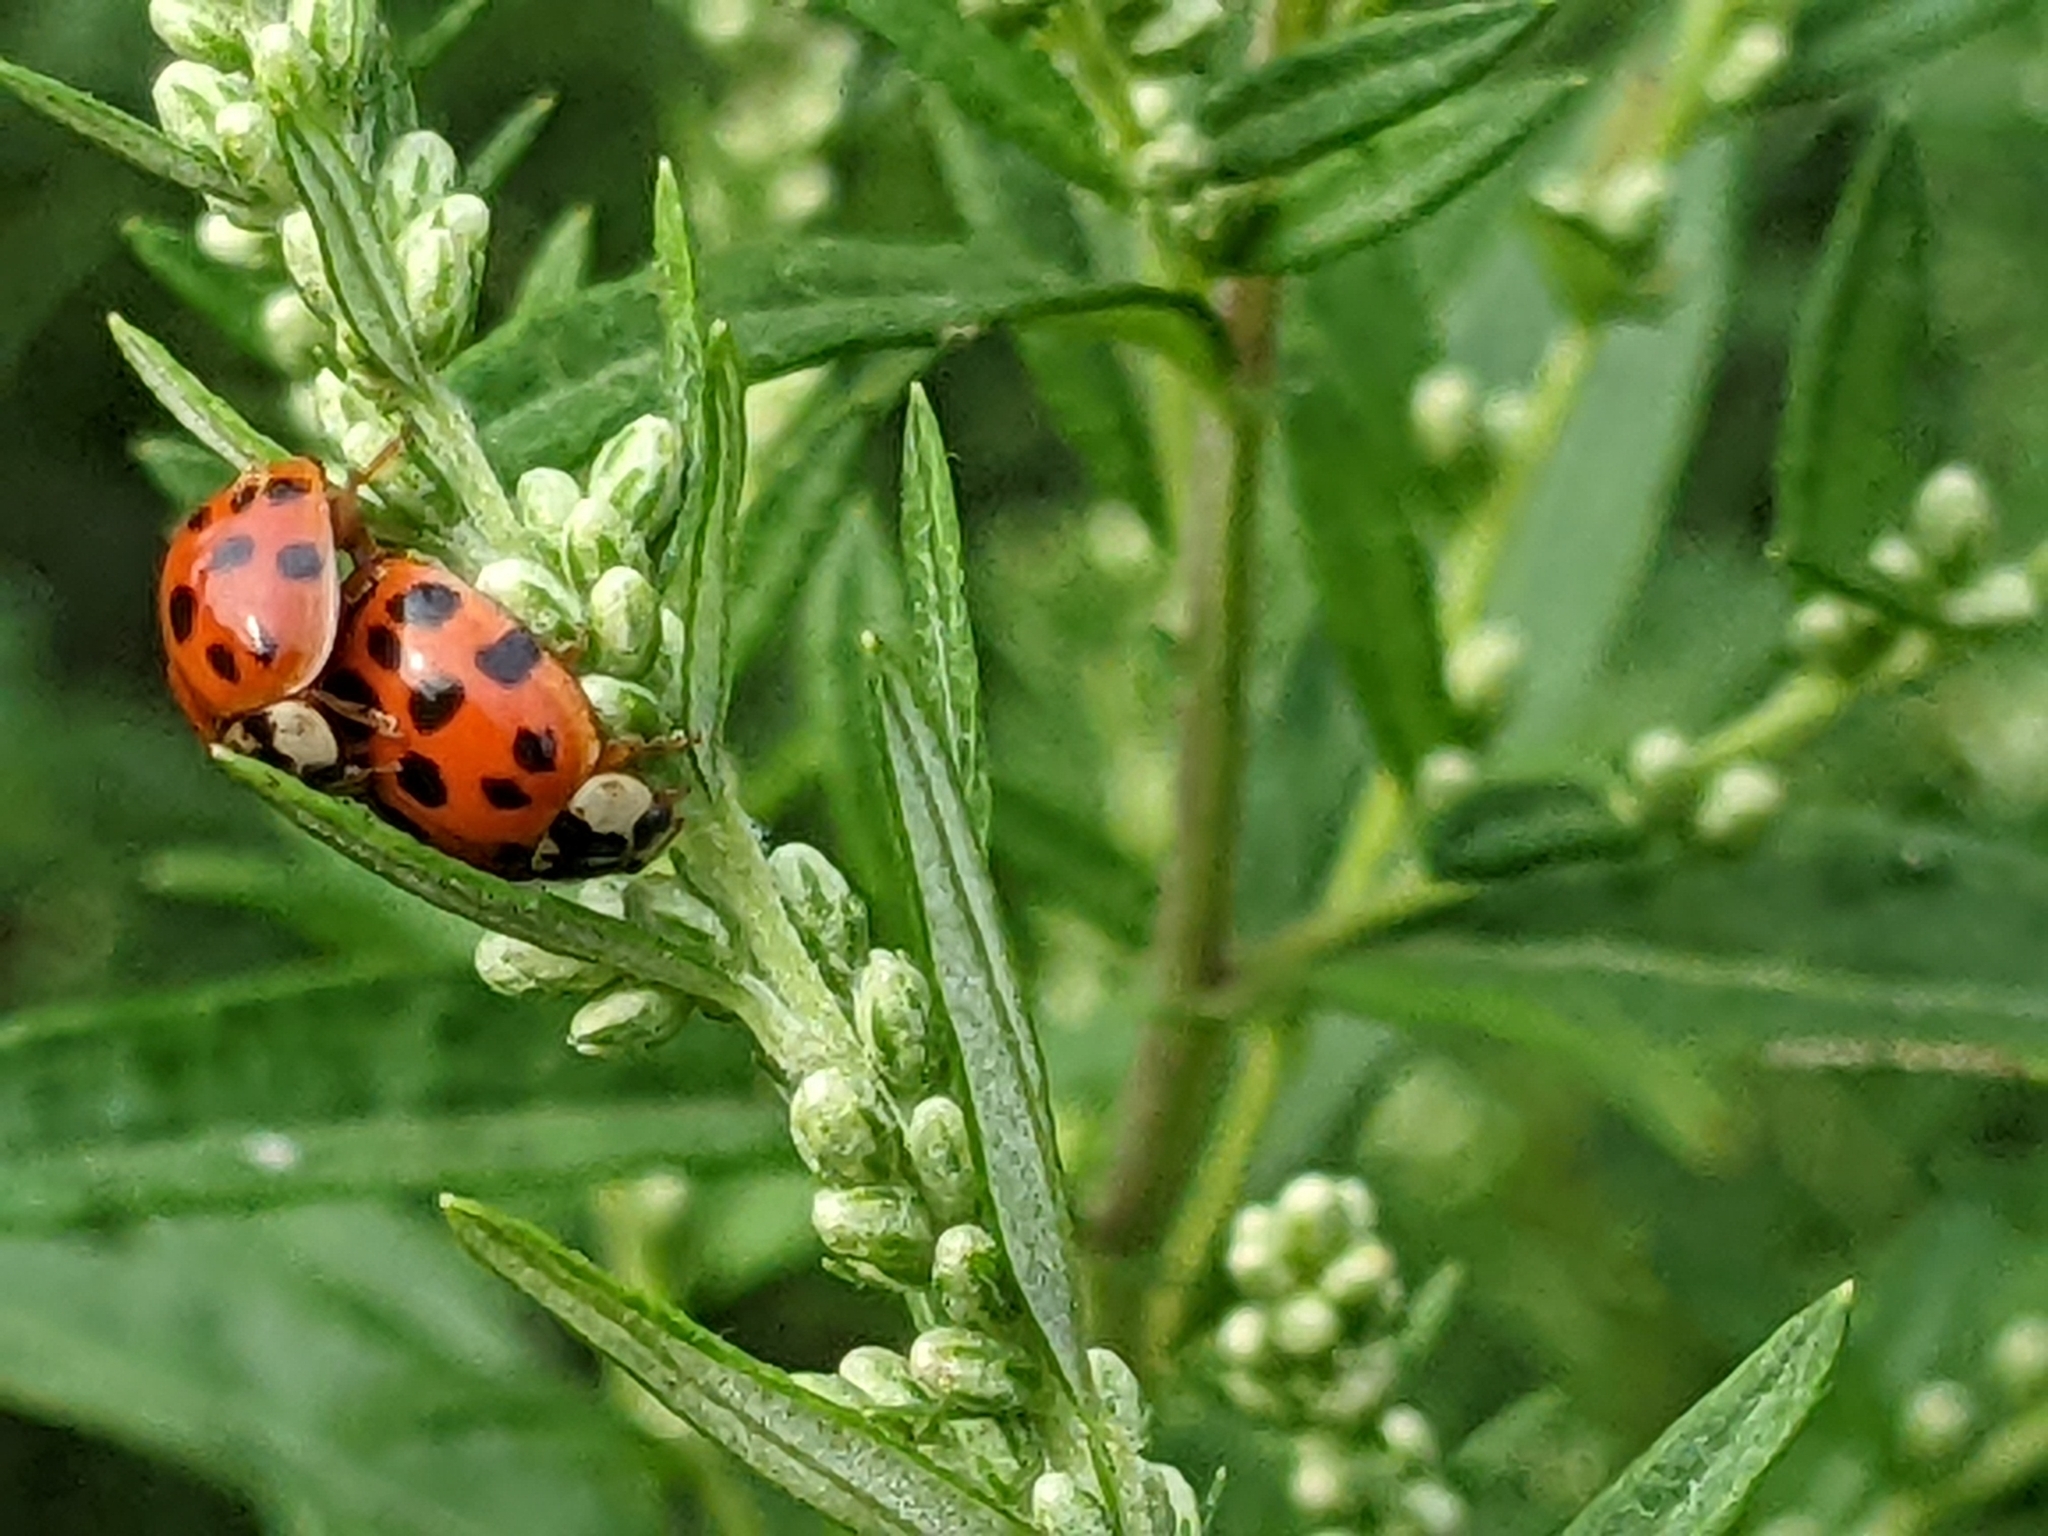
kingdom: Animalia
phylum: Arthropoda
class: Insecta
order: Coleoptera
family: Coccinellidae
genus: Harmonia
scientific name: Harmonia axyridis
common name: Harlequin ladybird
